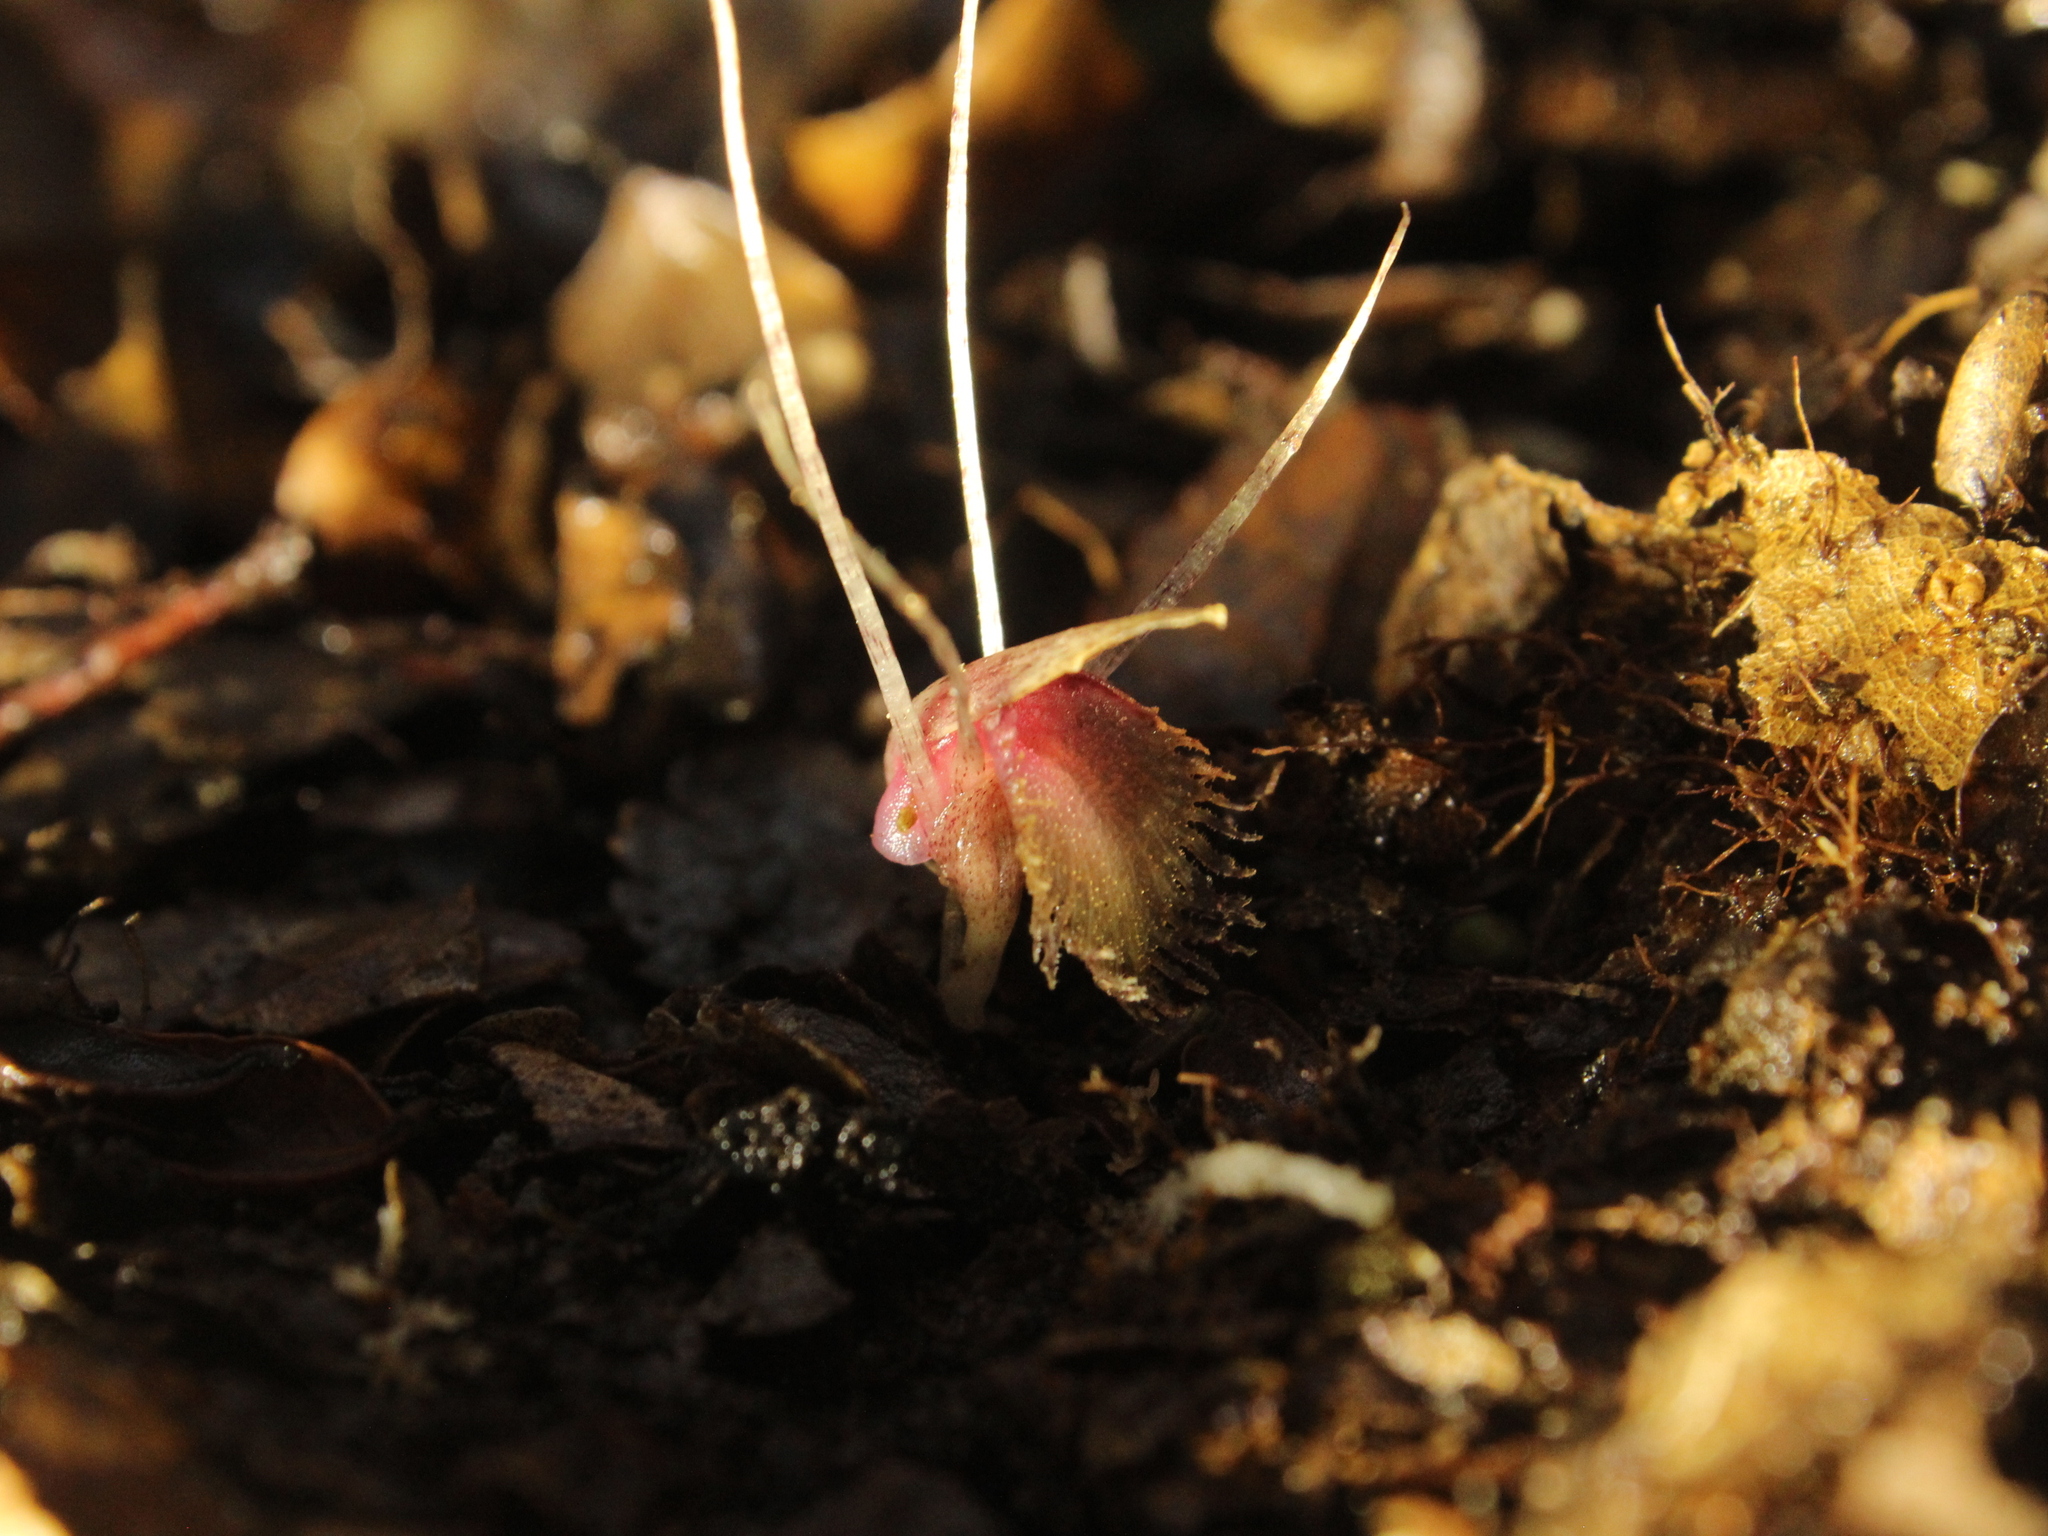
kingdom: Plantae
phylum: Tracheophyta
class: Liliopsida
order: Asparagales
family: Orchidaceae
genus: Corybas
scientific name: Corybas cryptanthus
